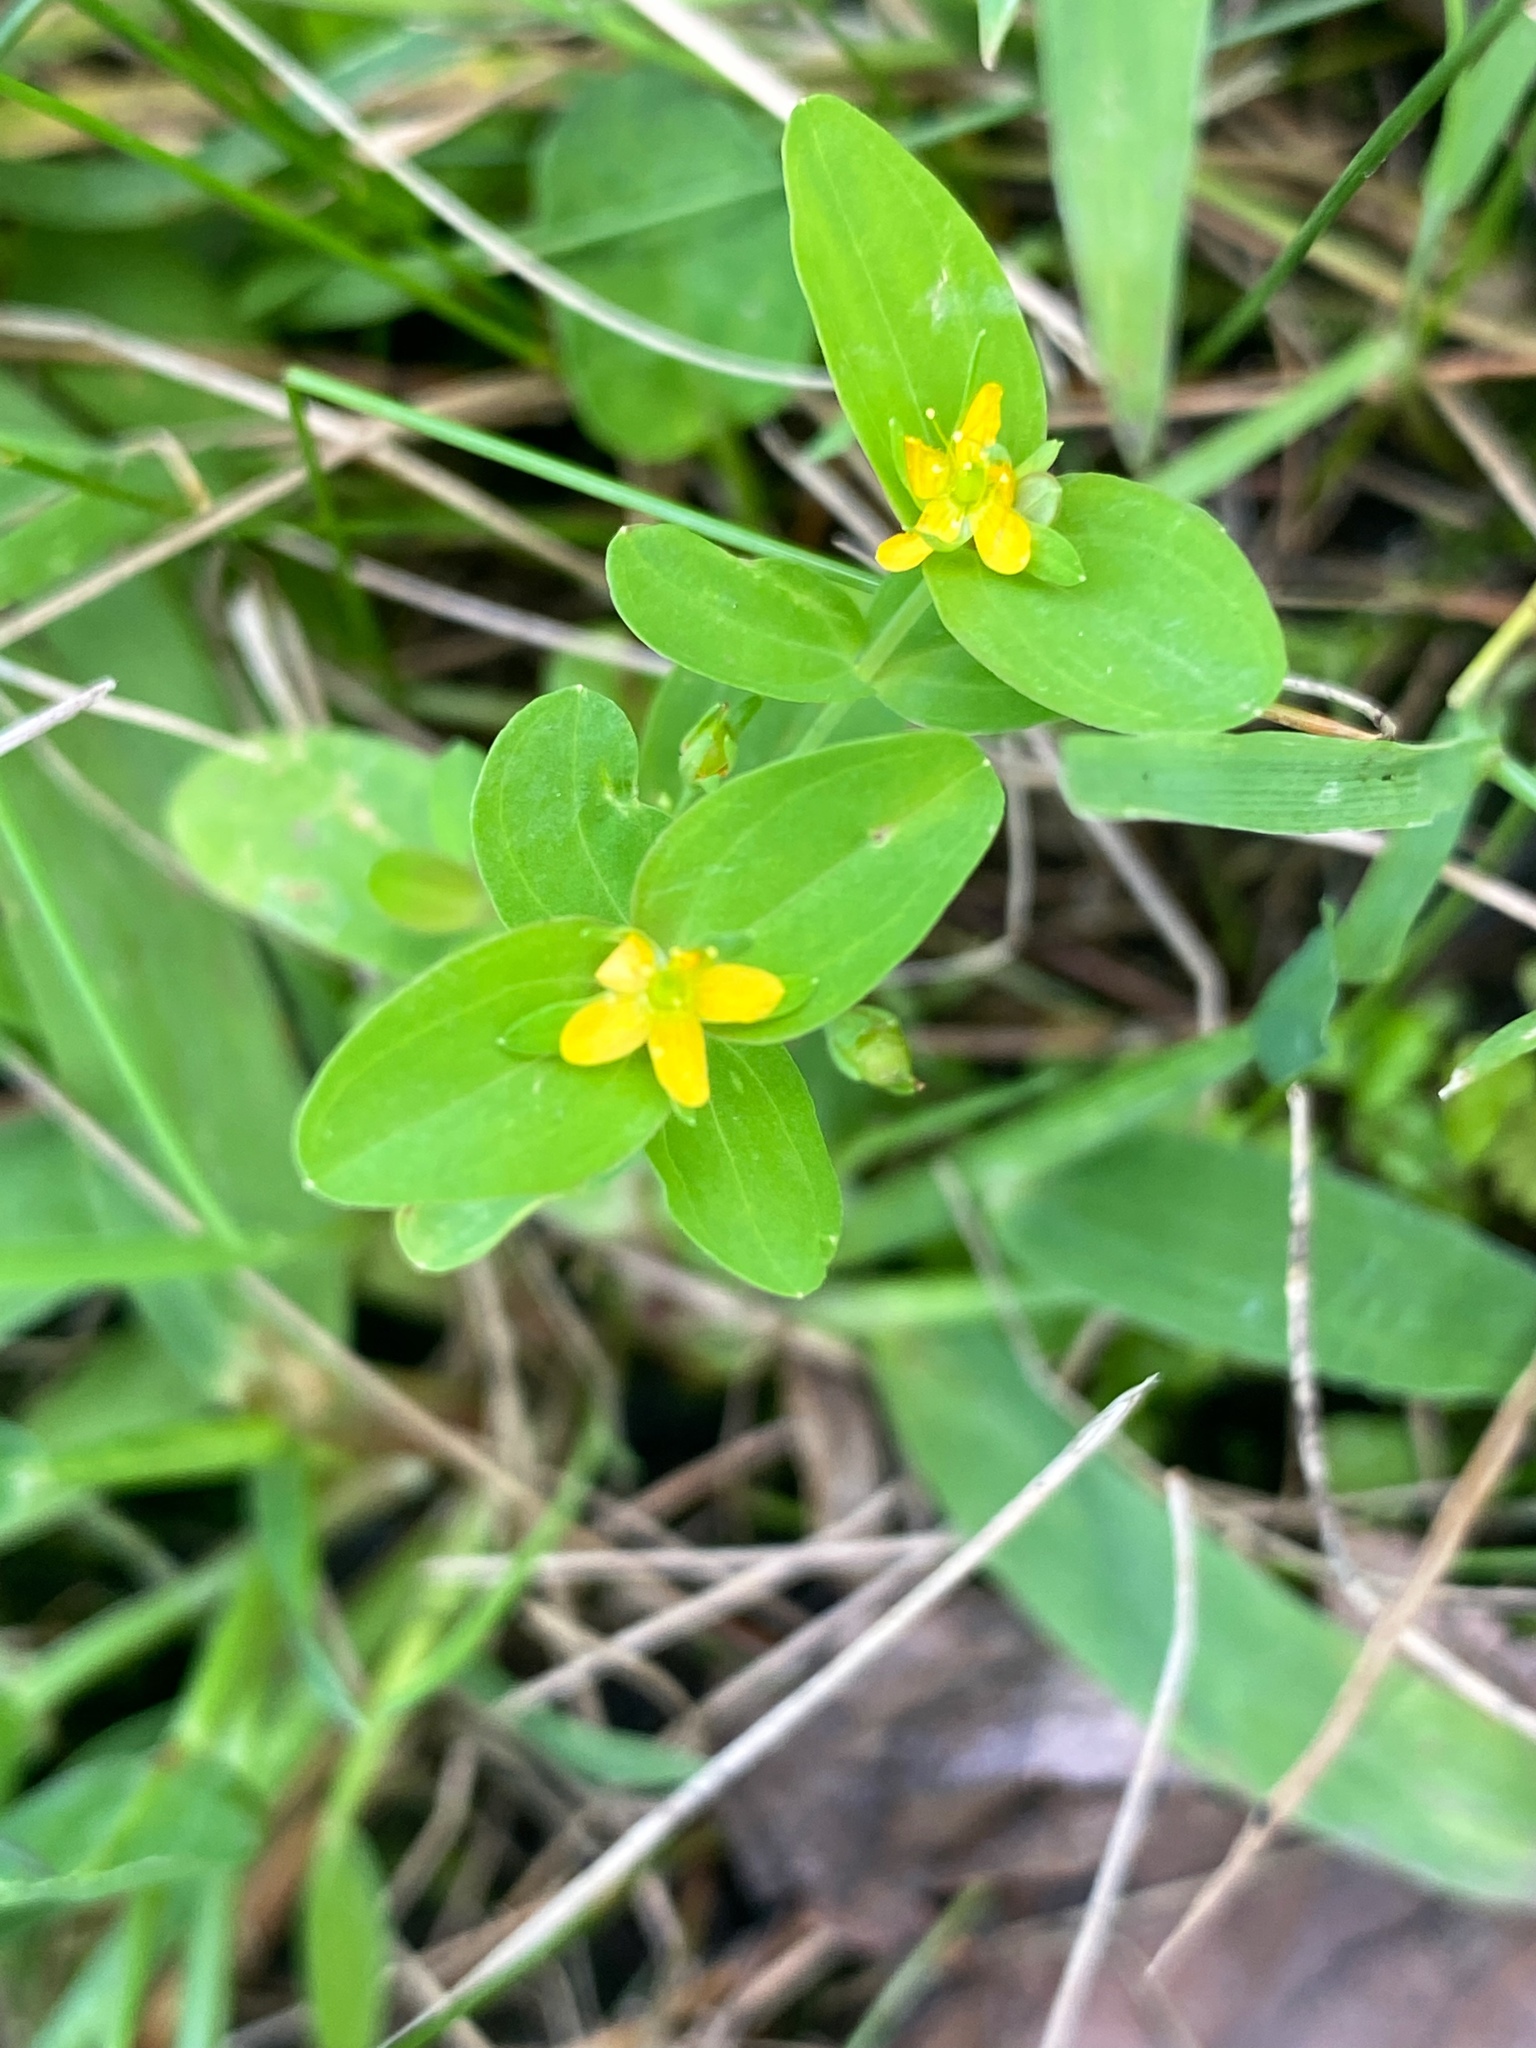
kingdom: Plantae
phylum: Tracheophyta
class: Magnoliopsida
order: Malpighiales
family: Hypericaceae
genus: Hypericum
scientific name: Hypericum mutilum
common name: Dwarf st. john's-wort
